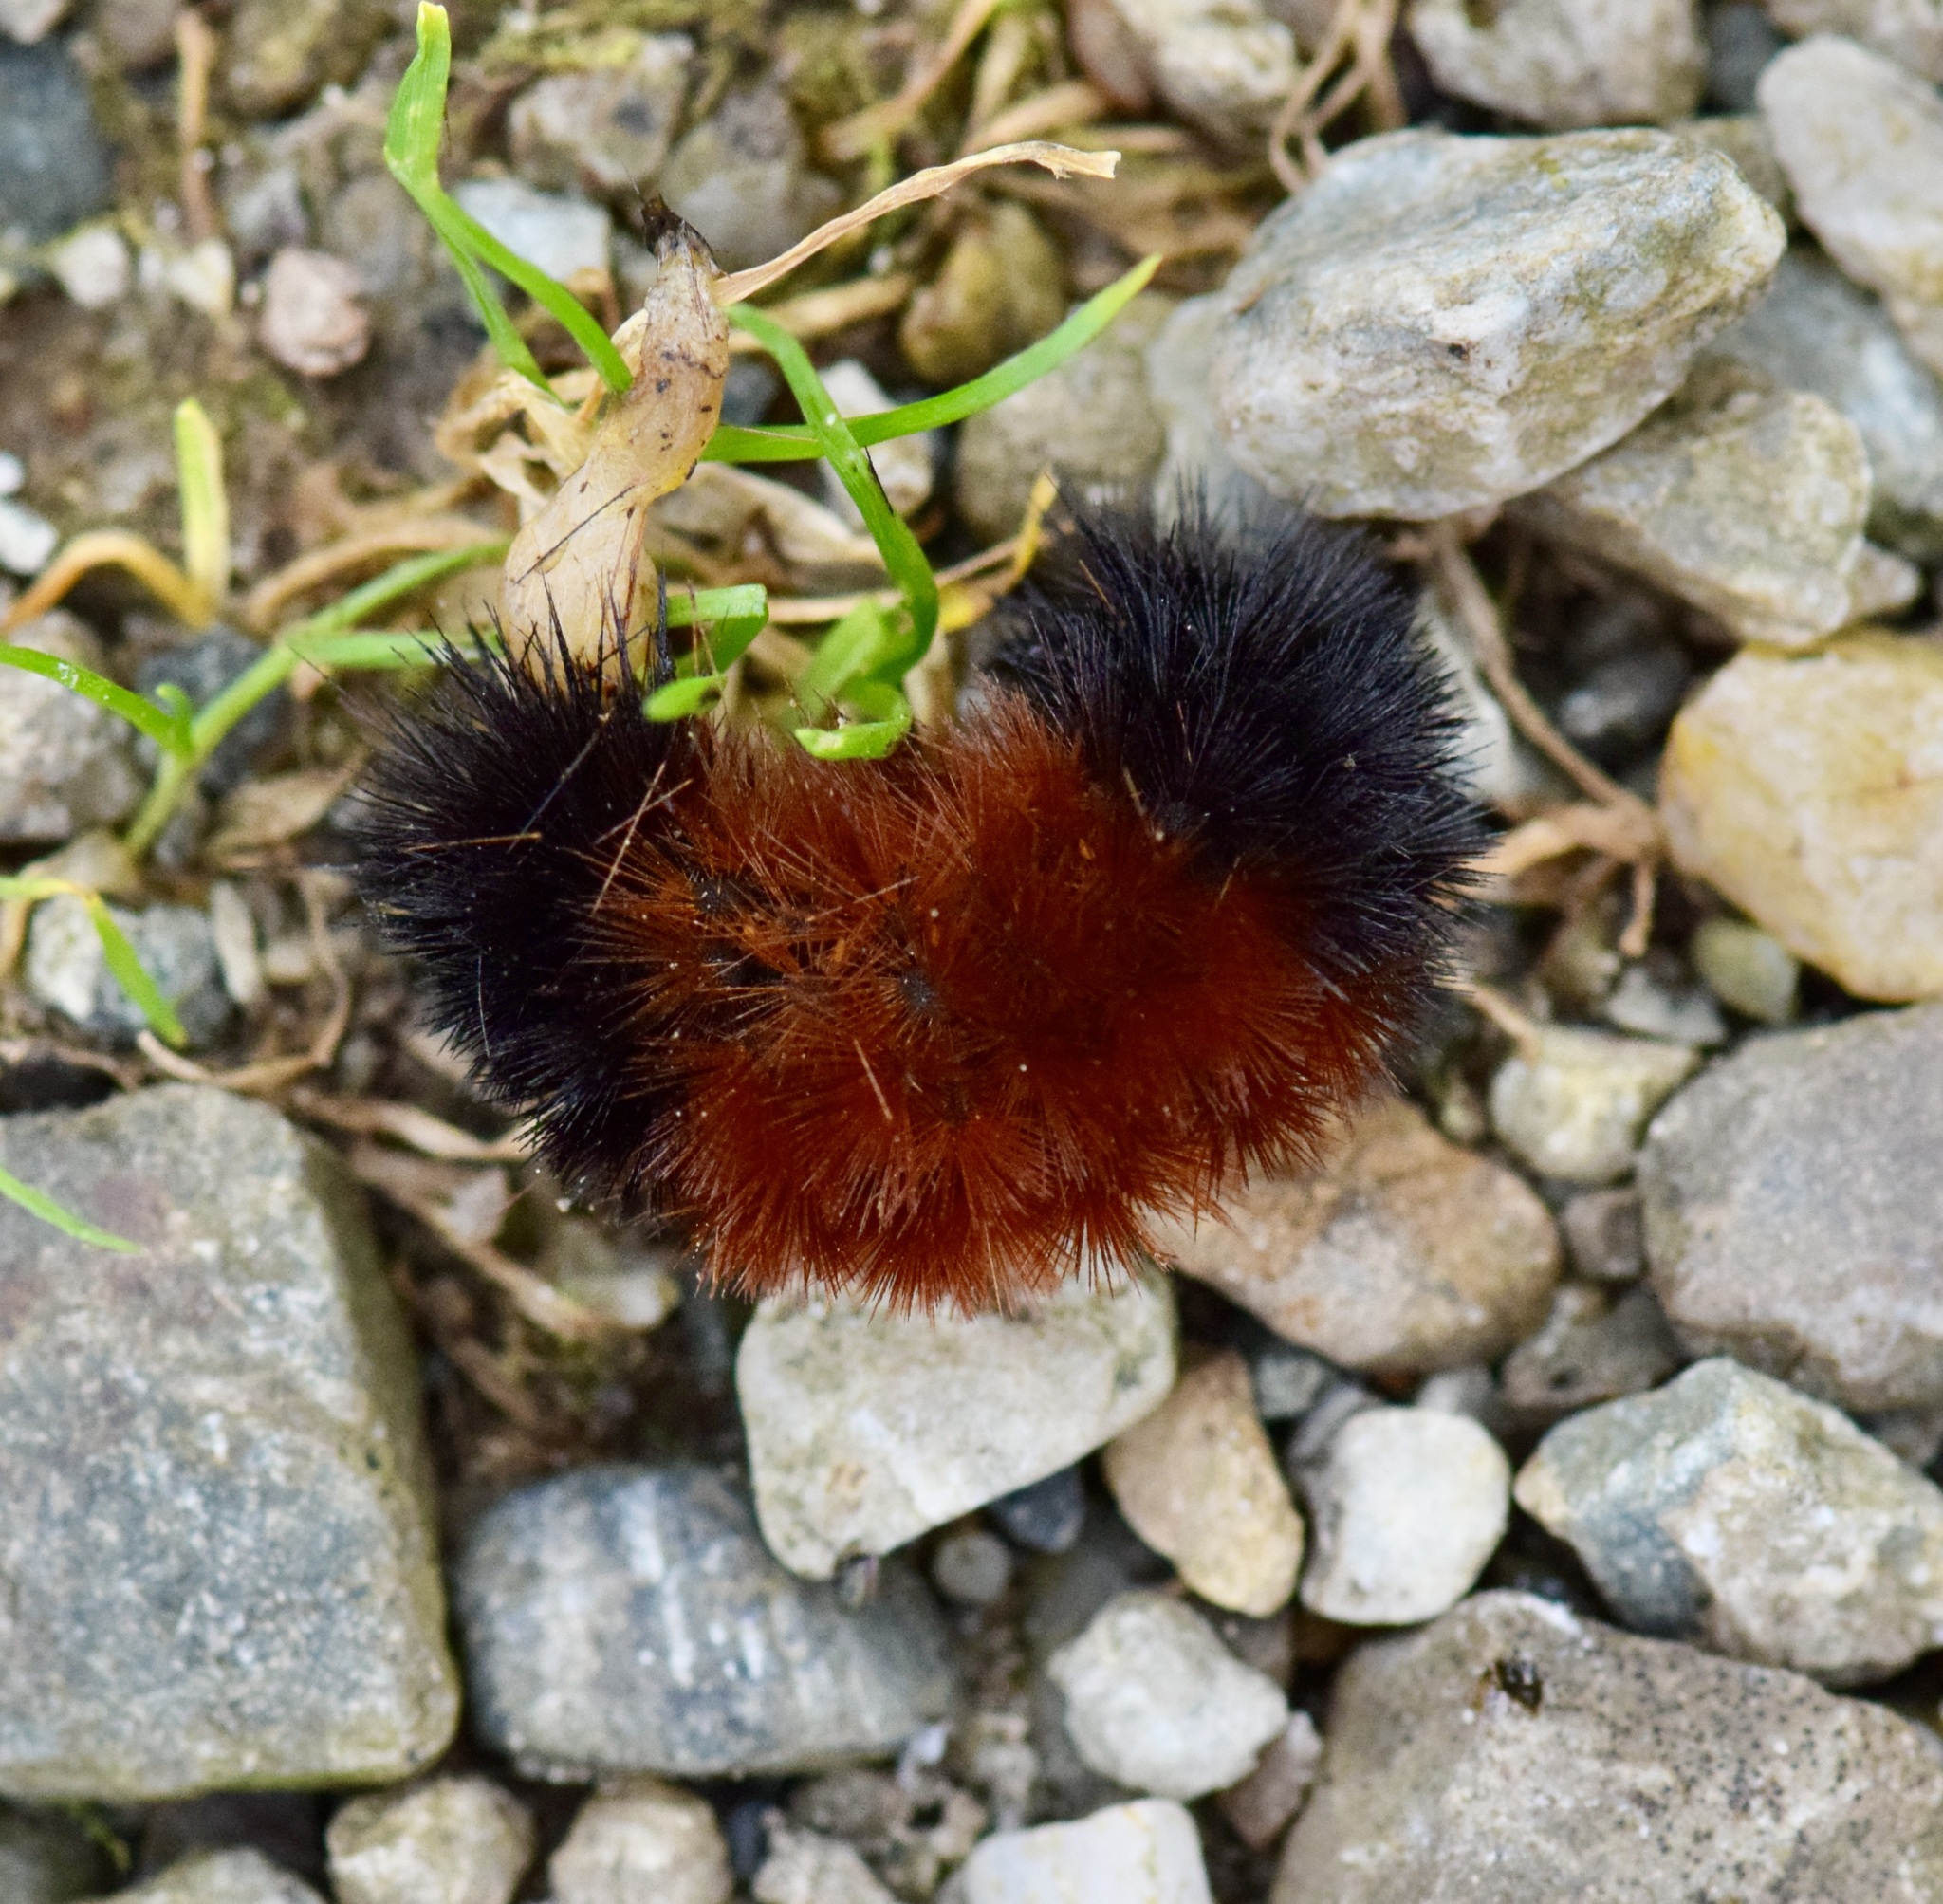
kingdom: Animalia
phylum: Arthropoda
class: Insecta
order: Lepidoptera
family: Erebidae
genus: Pyrrharctia
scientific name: Pyrrharctia isabella
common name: Isabella tiger moth
